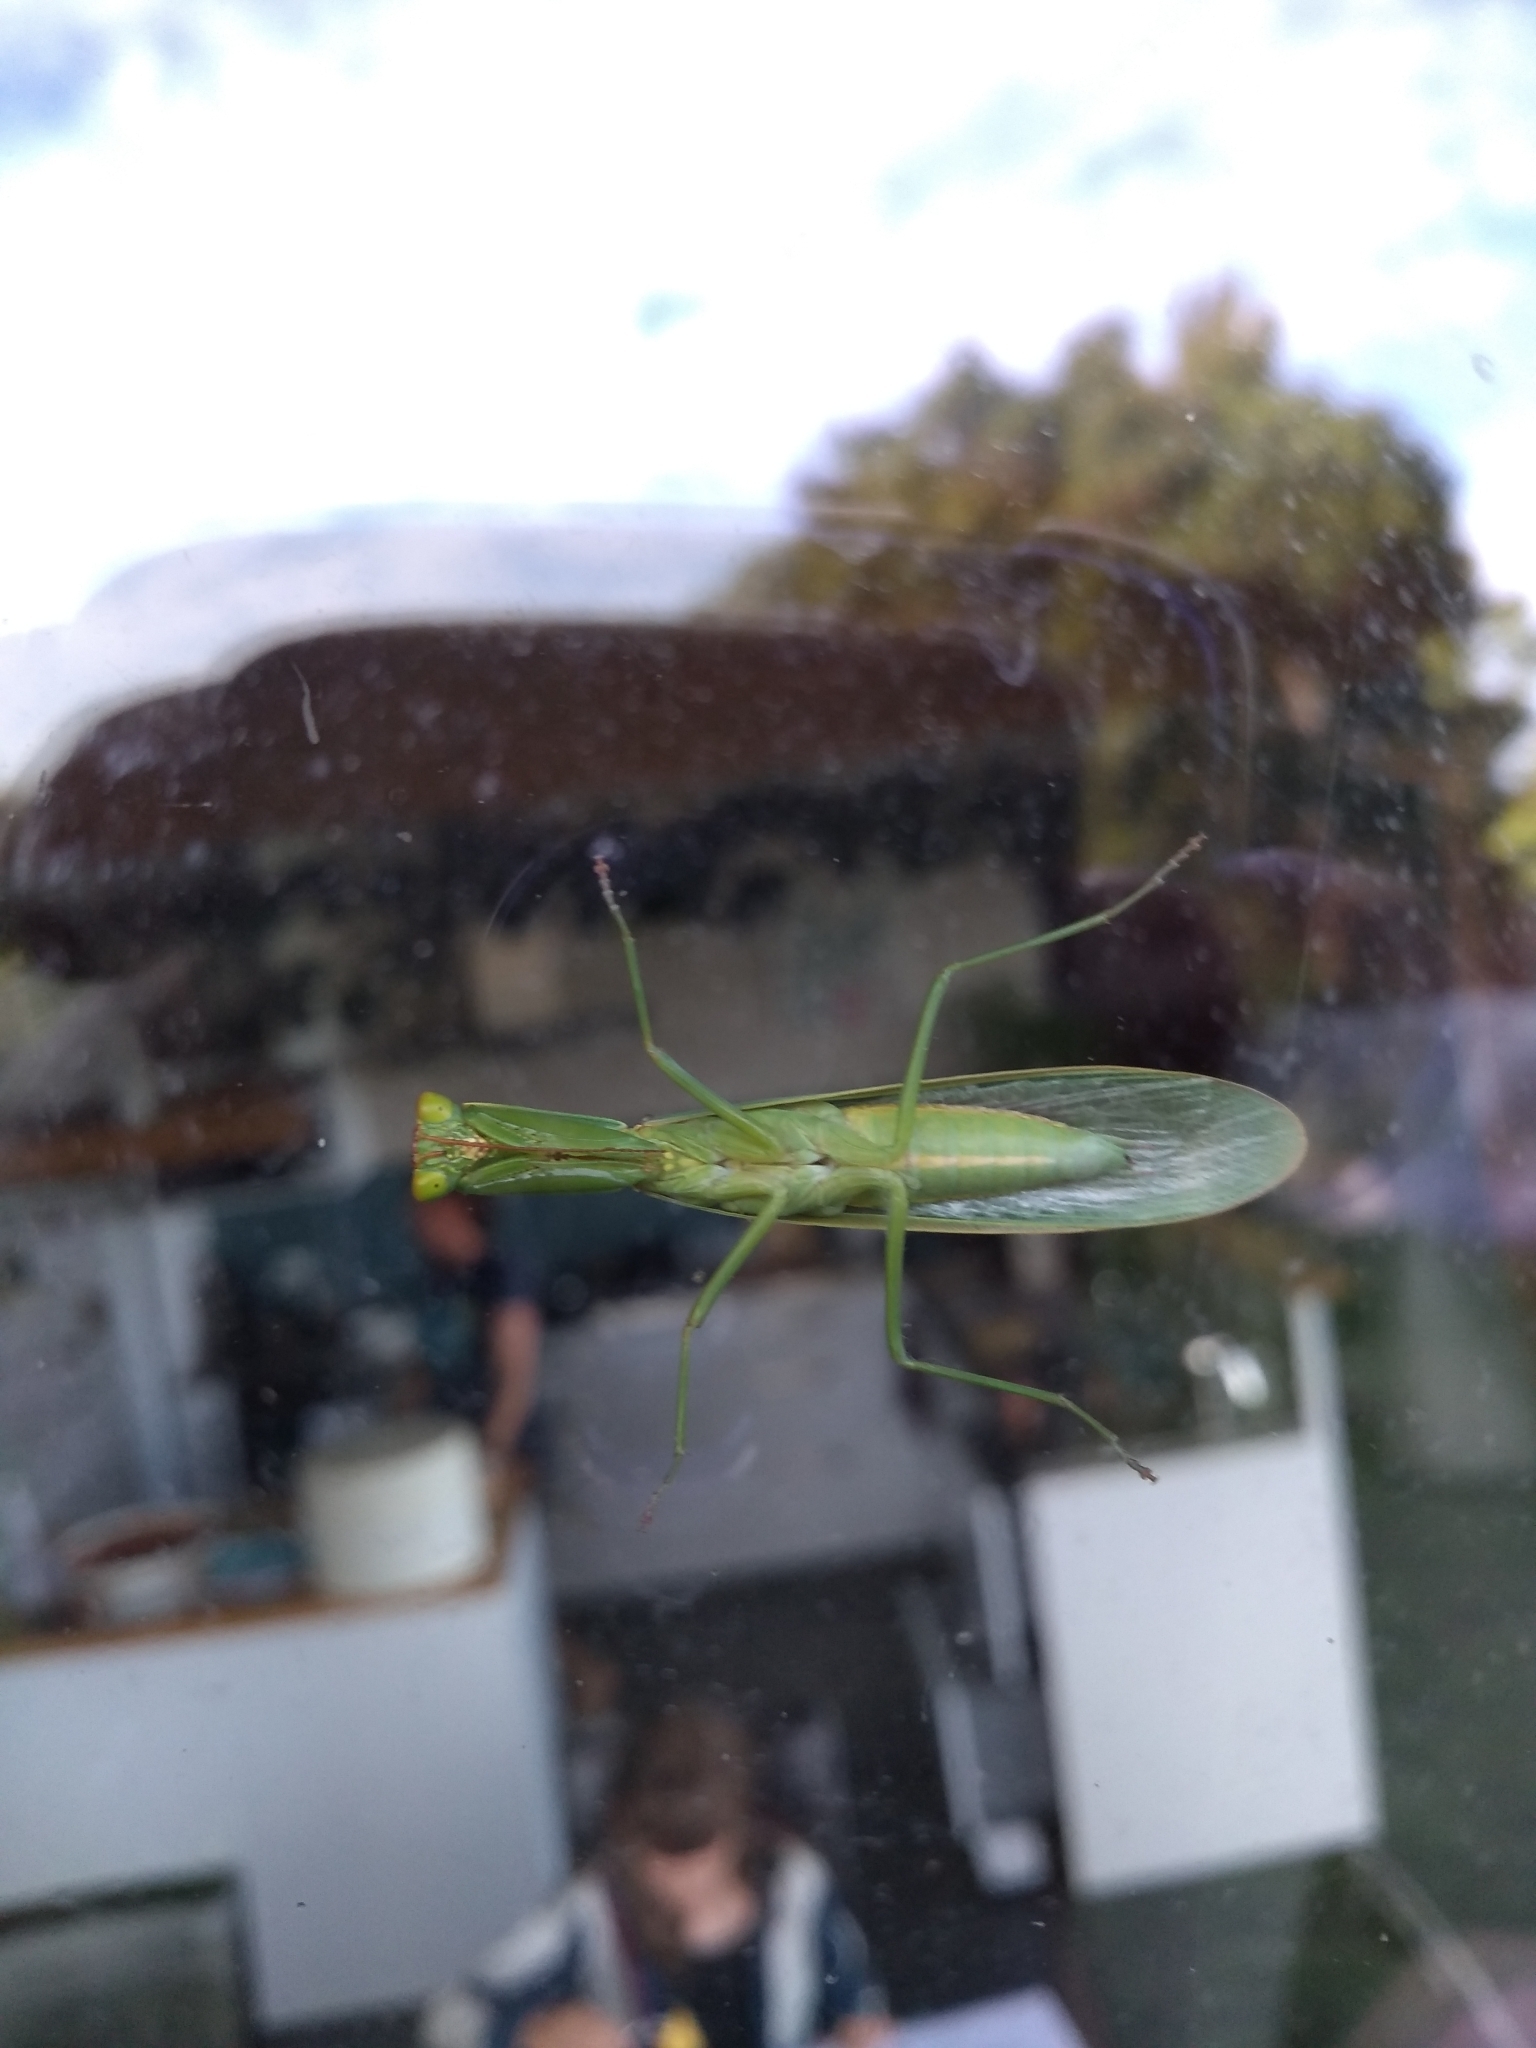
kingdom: Animalia
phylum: Arthropoda
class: Insecta
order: Mantodea
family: Mantidae
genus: Orthodera
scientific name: Orthodera novaezealandiae
